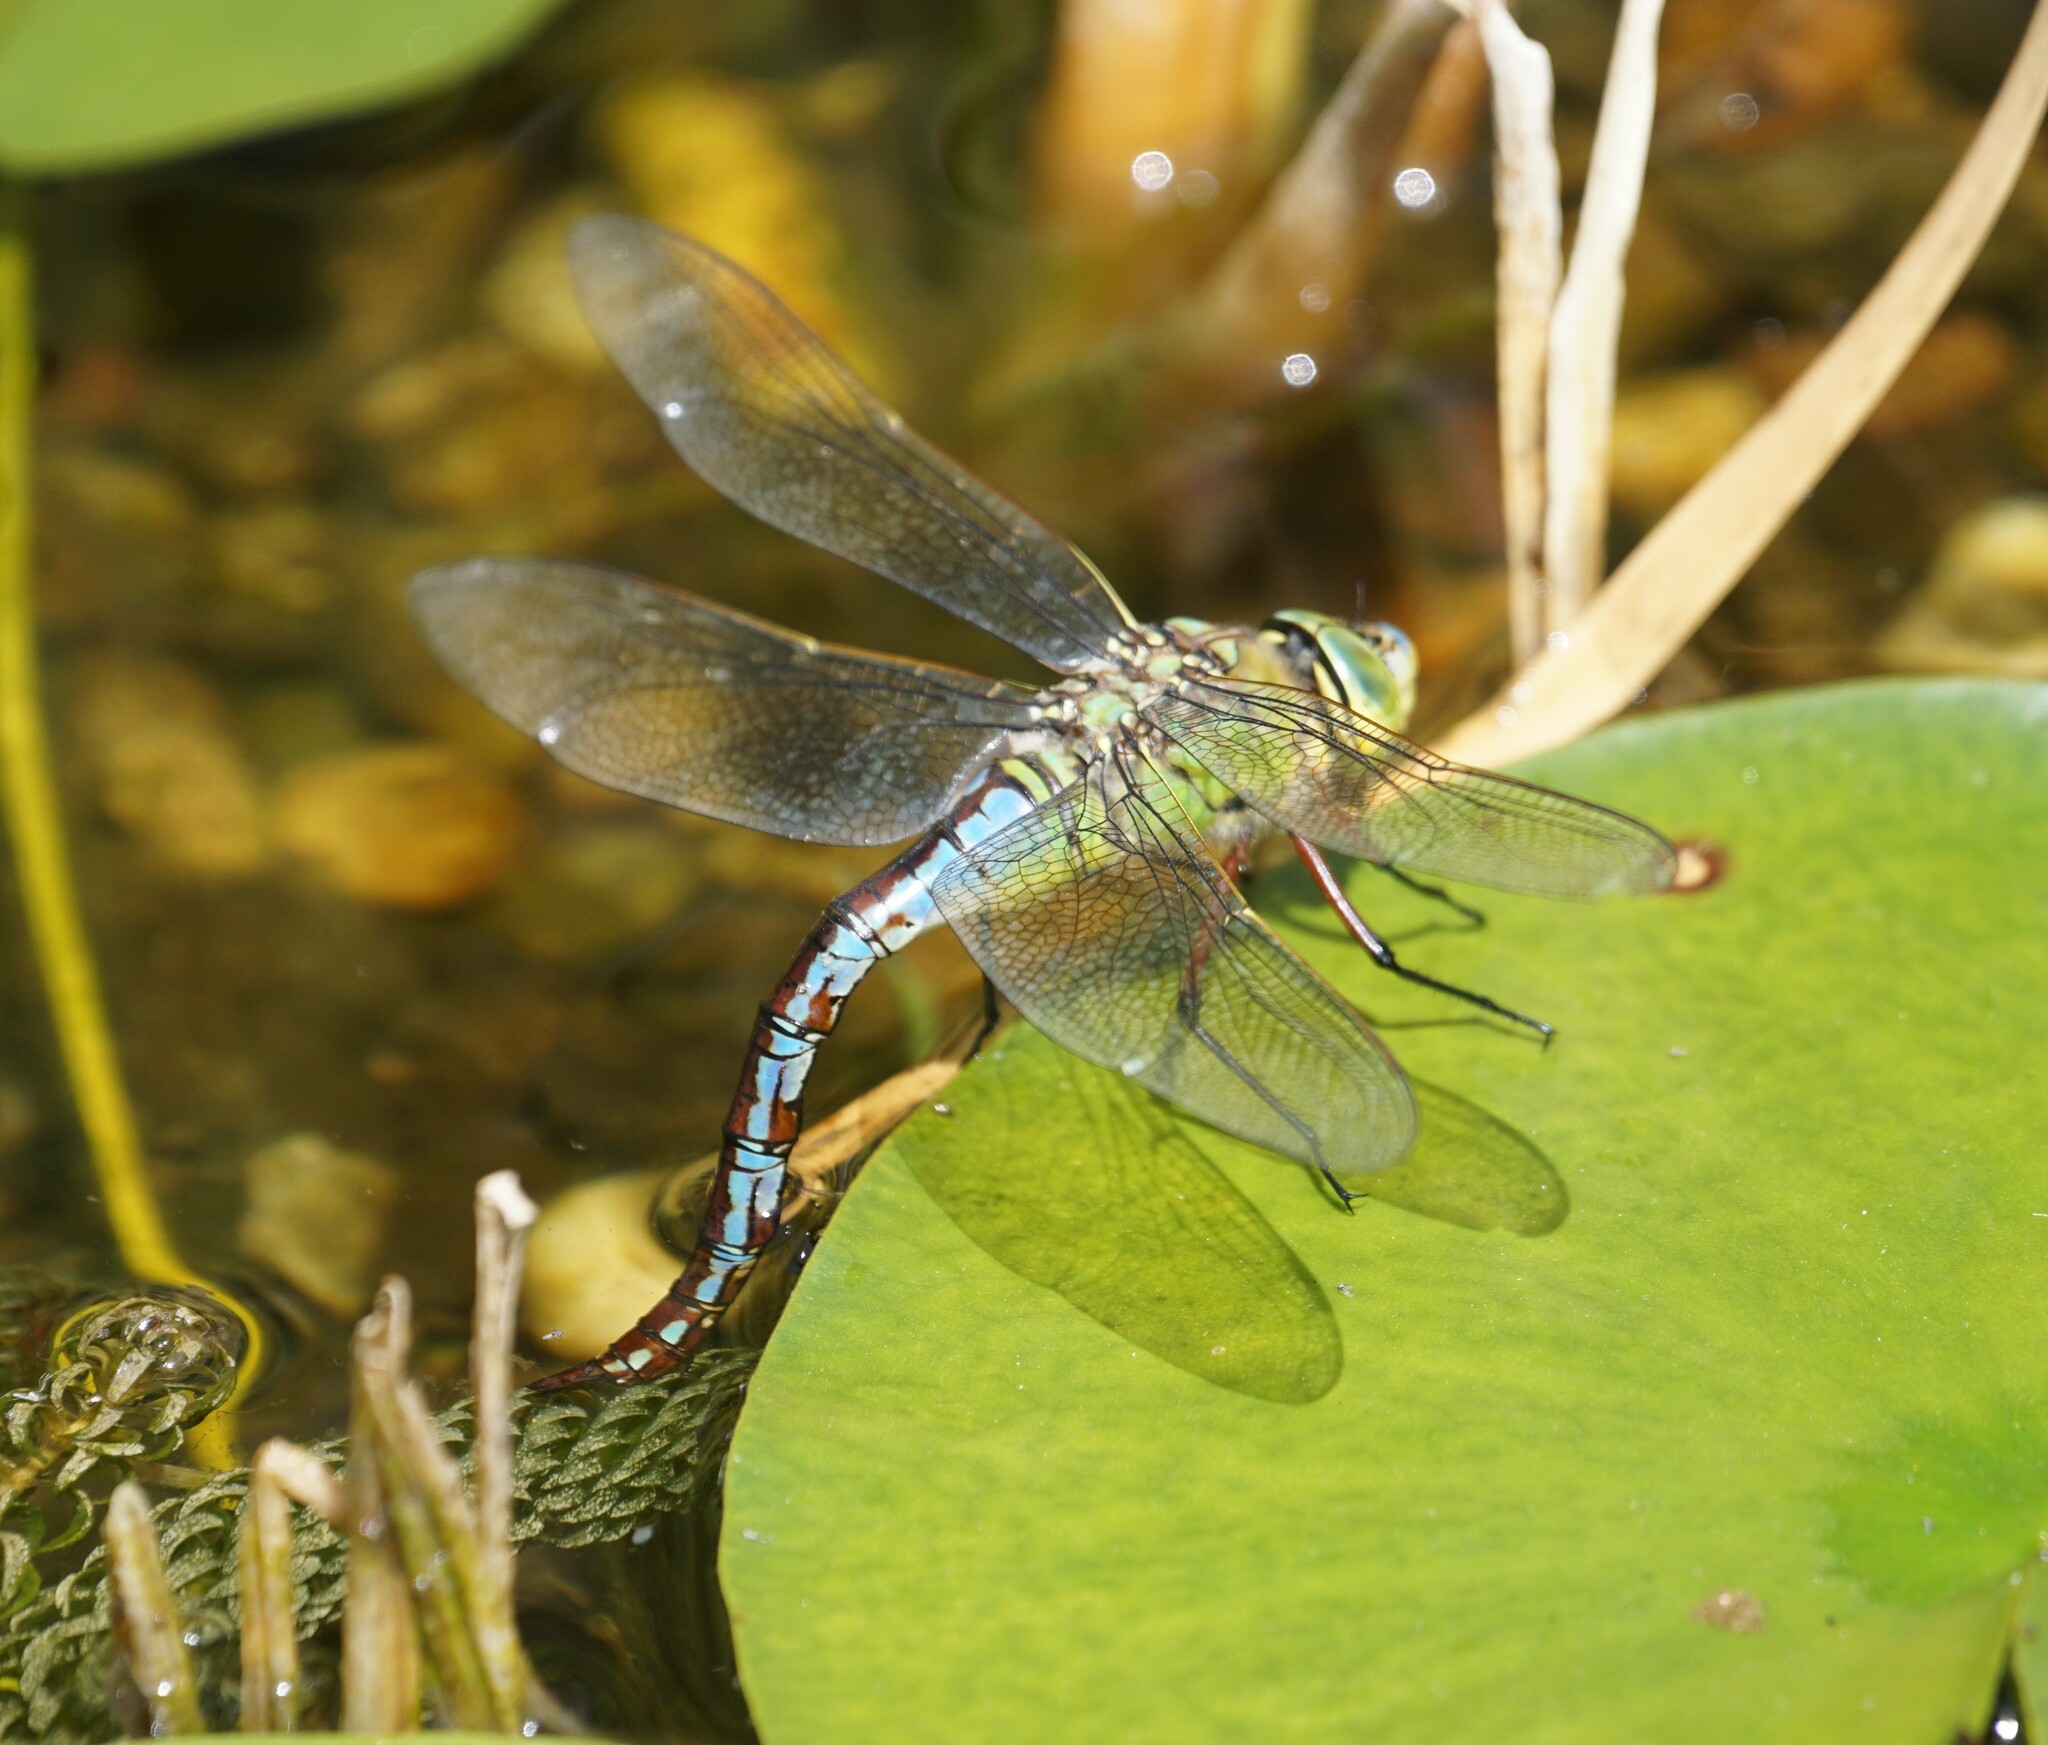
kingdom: Animalia
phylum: Arthropoda
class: Insecta
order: Odonata
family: Aeshnidae
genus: Anax
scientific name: Anax imperator
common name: Emperor dragonfly
